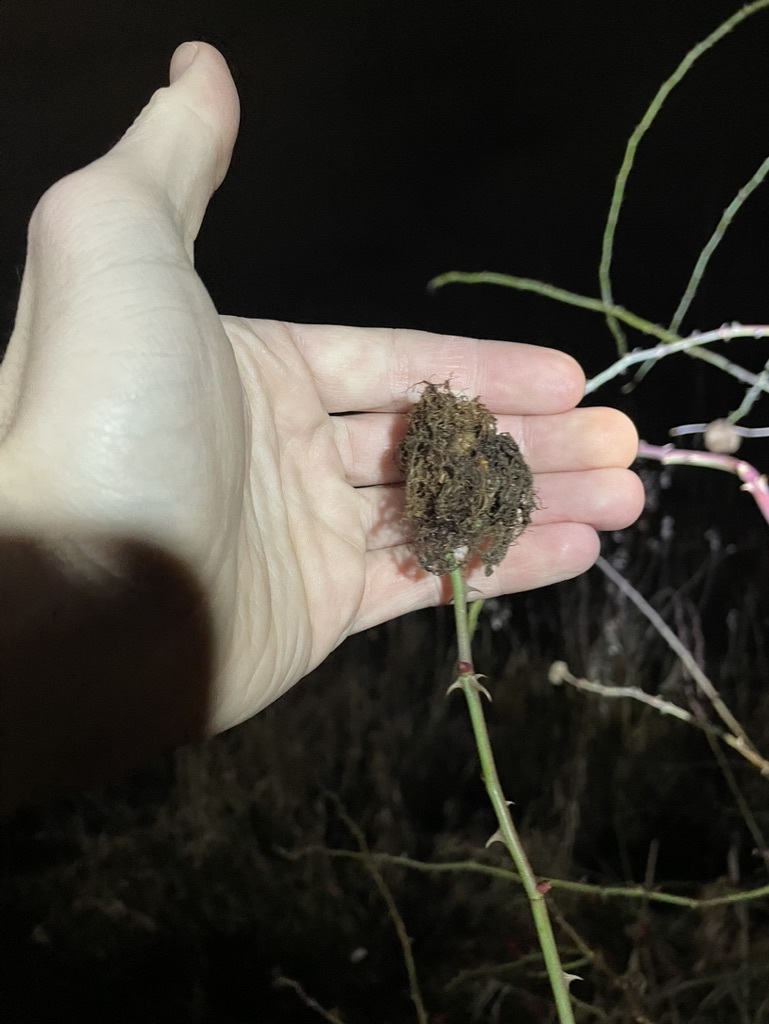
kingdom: Animalia
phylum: Arthropoda
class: Insecta
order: Hymenoptera
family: Cynipidae
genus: Diplolepis
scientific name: Diplolepis rosae
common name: Bedeguar gall
